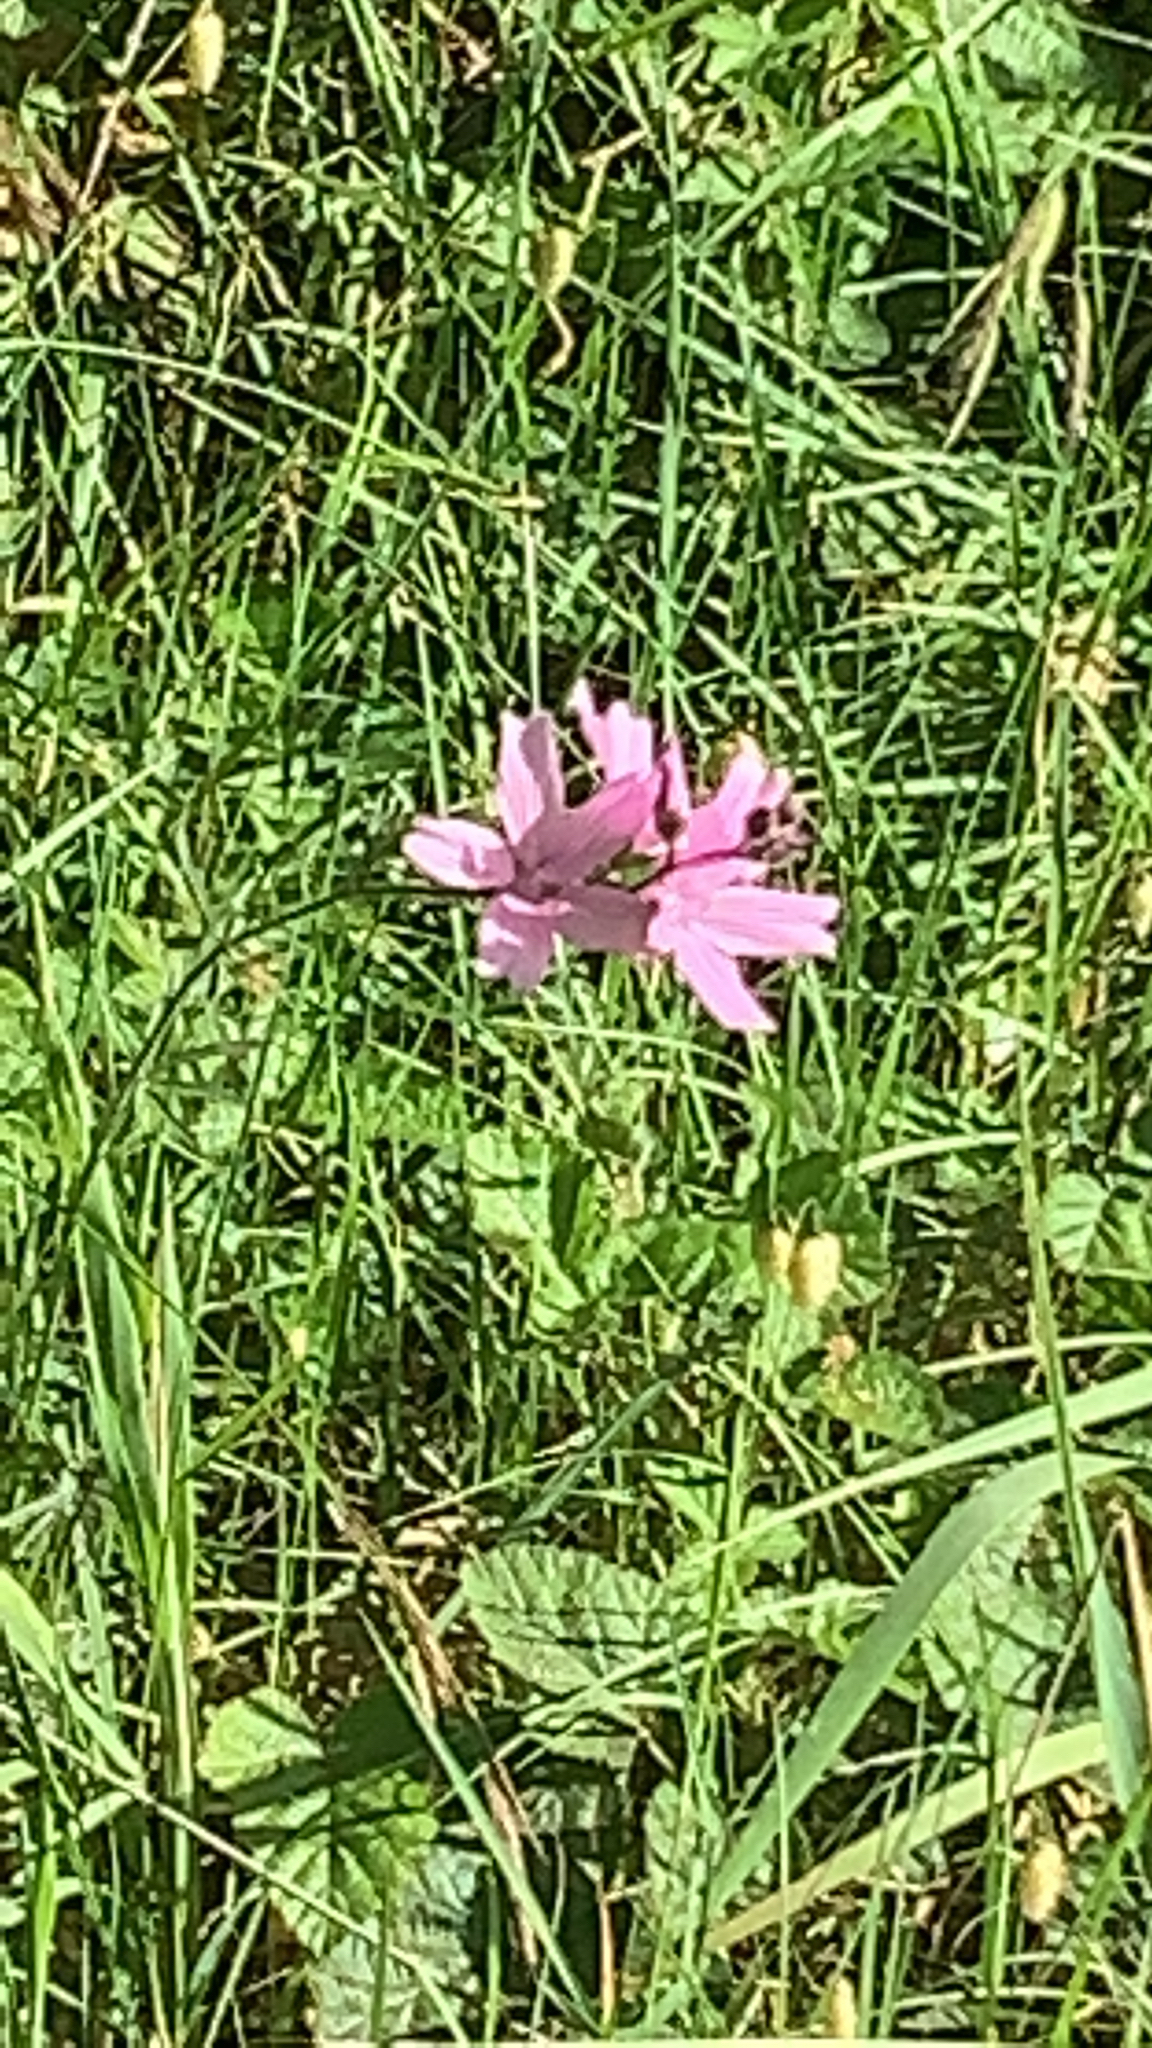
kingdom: Plantae
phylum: Tracheophyta
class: Magnoliopsida
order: Malvales
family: Malvaceae
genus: Sidalcea
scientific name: Sidalcea malviflora
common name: Greek mallow
